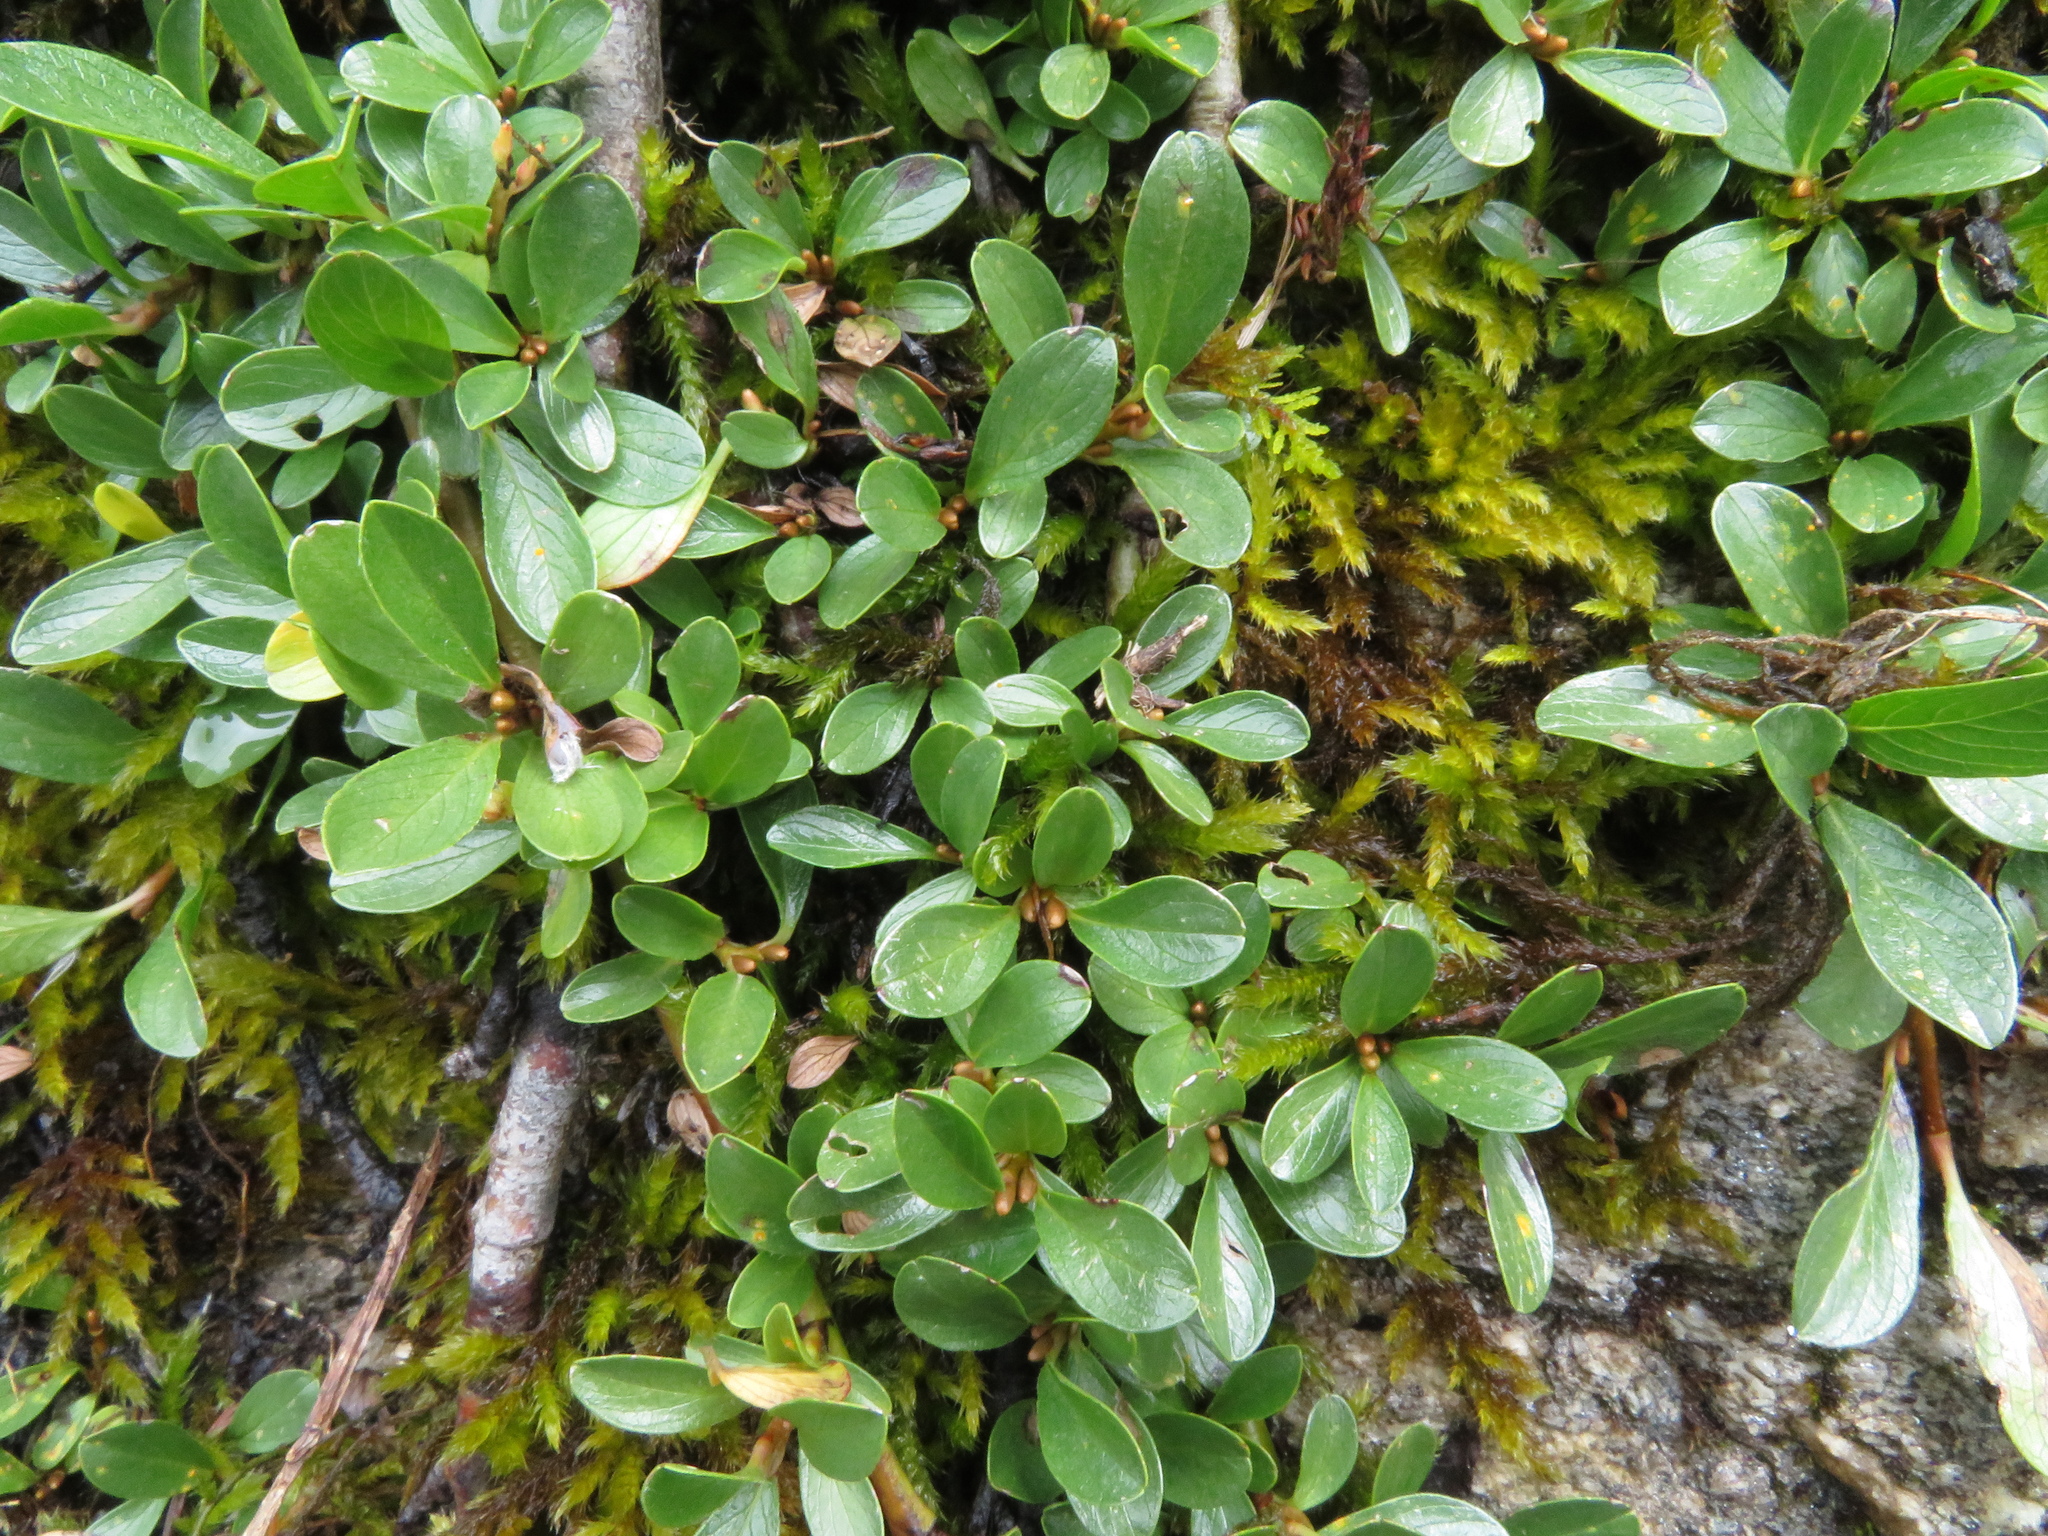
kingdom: Plantae
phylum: Tracheophyta
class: Magnoliopsida
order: Malpighiales
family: Salicaceae
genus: Salix
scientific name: Salix retusa
